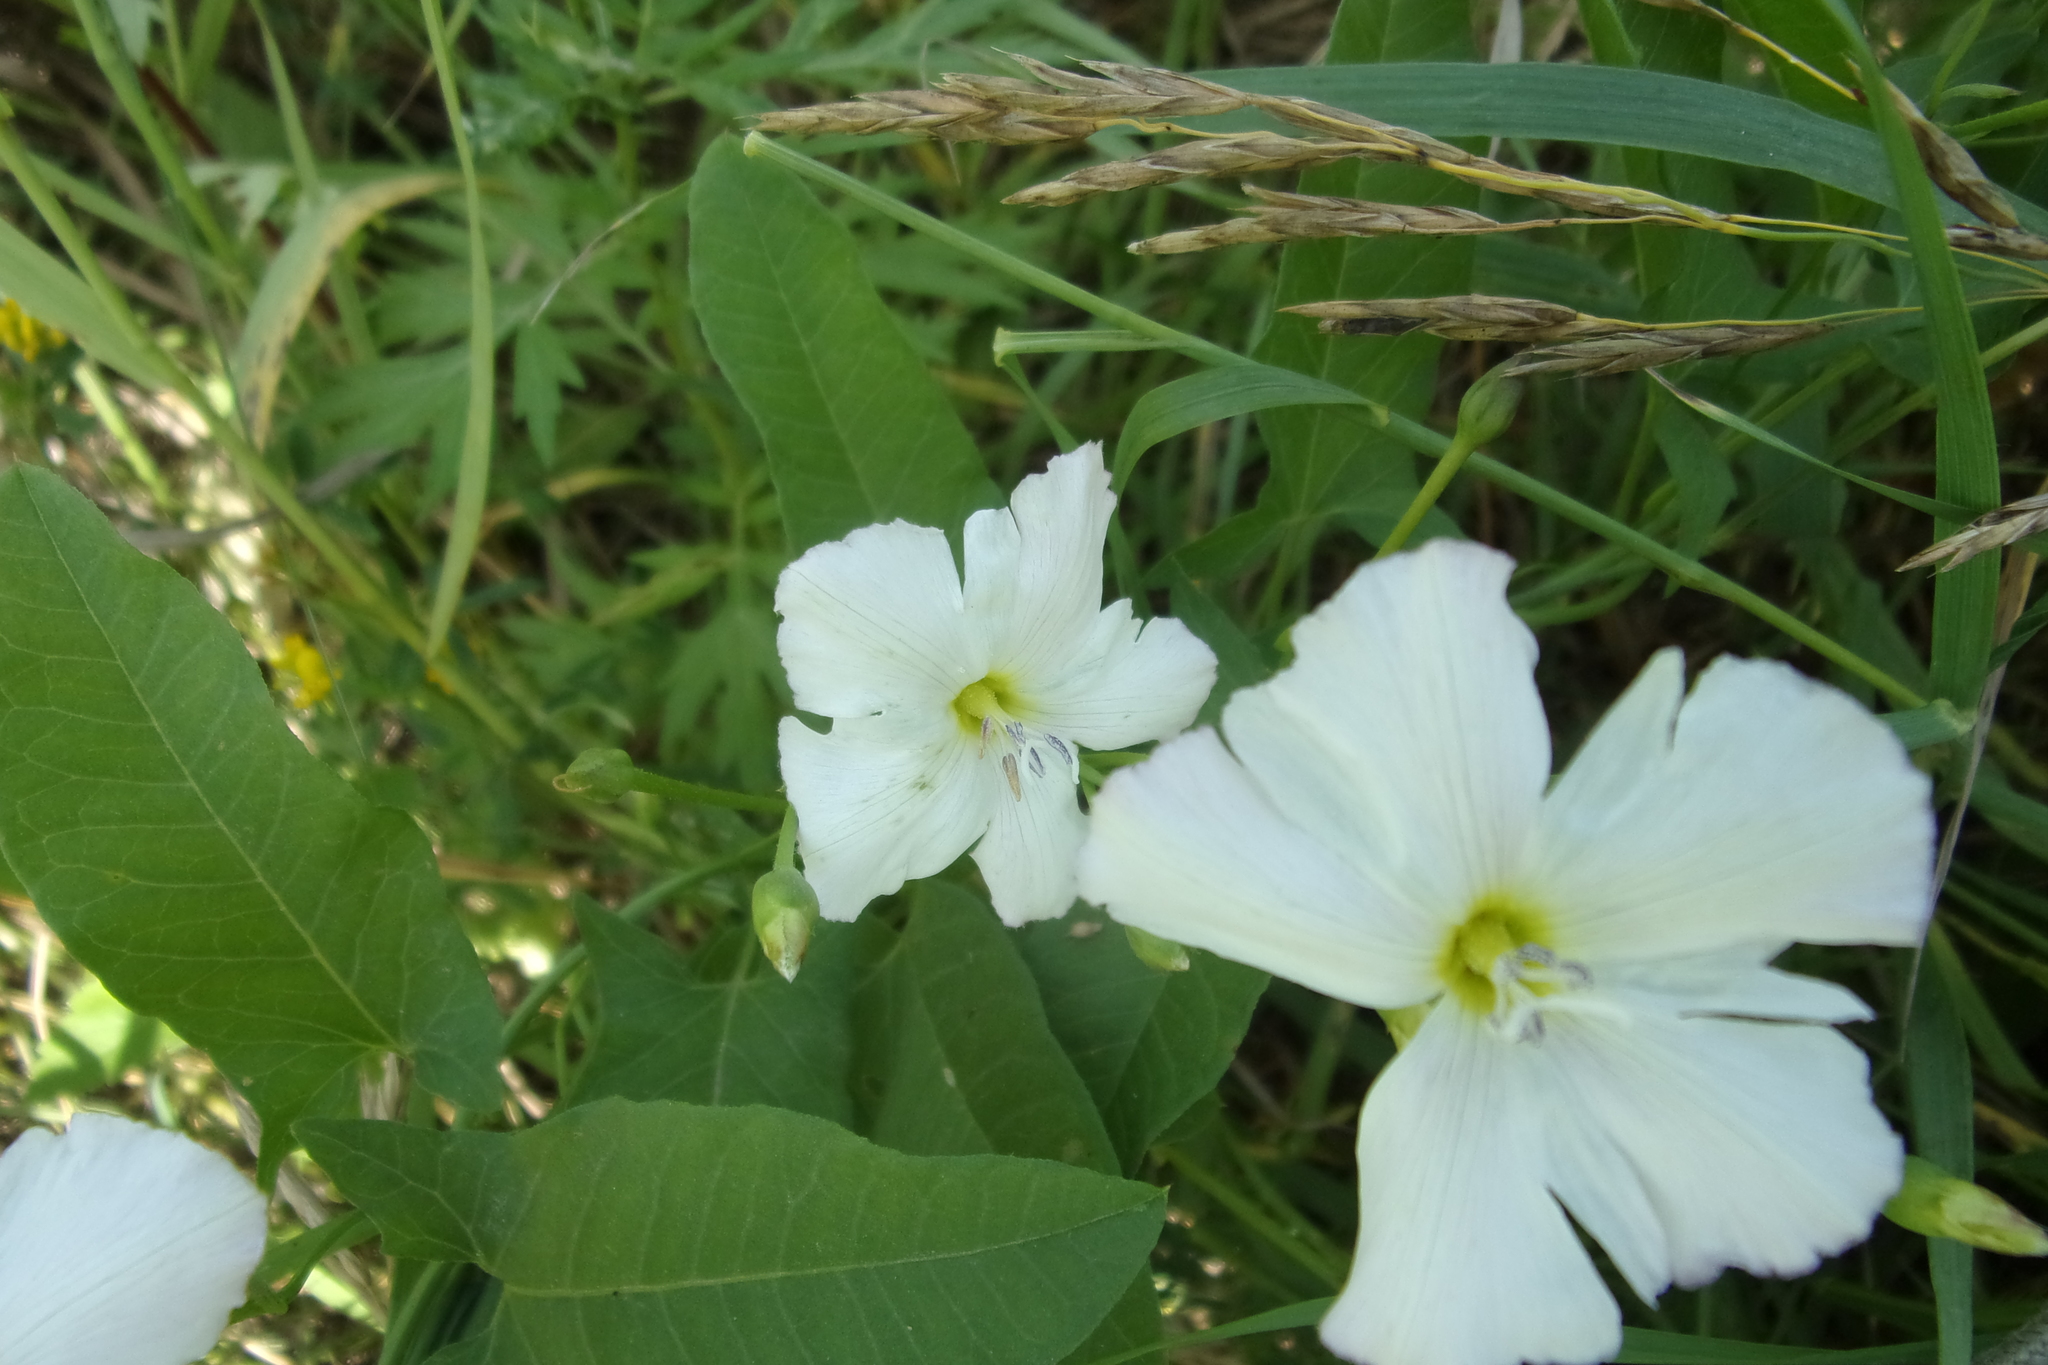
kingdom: Plantae
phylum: Tracheophyta
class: Magnoliopsida
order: Solanales
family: Convolvulaceae
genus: Convolvulus
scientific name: Convolvulus arvensis
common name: Field bindweed
